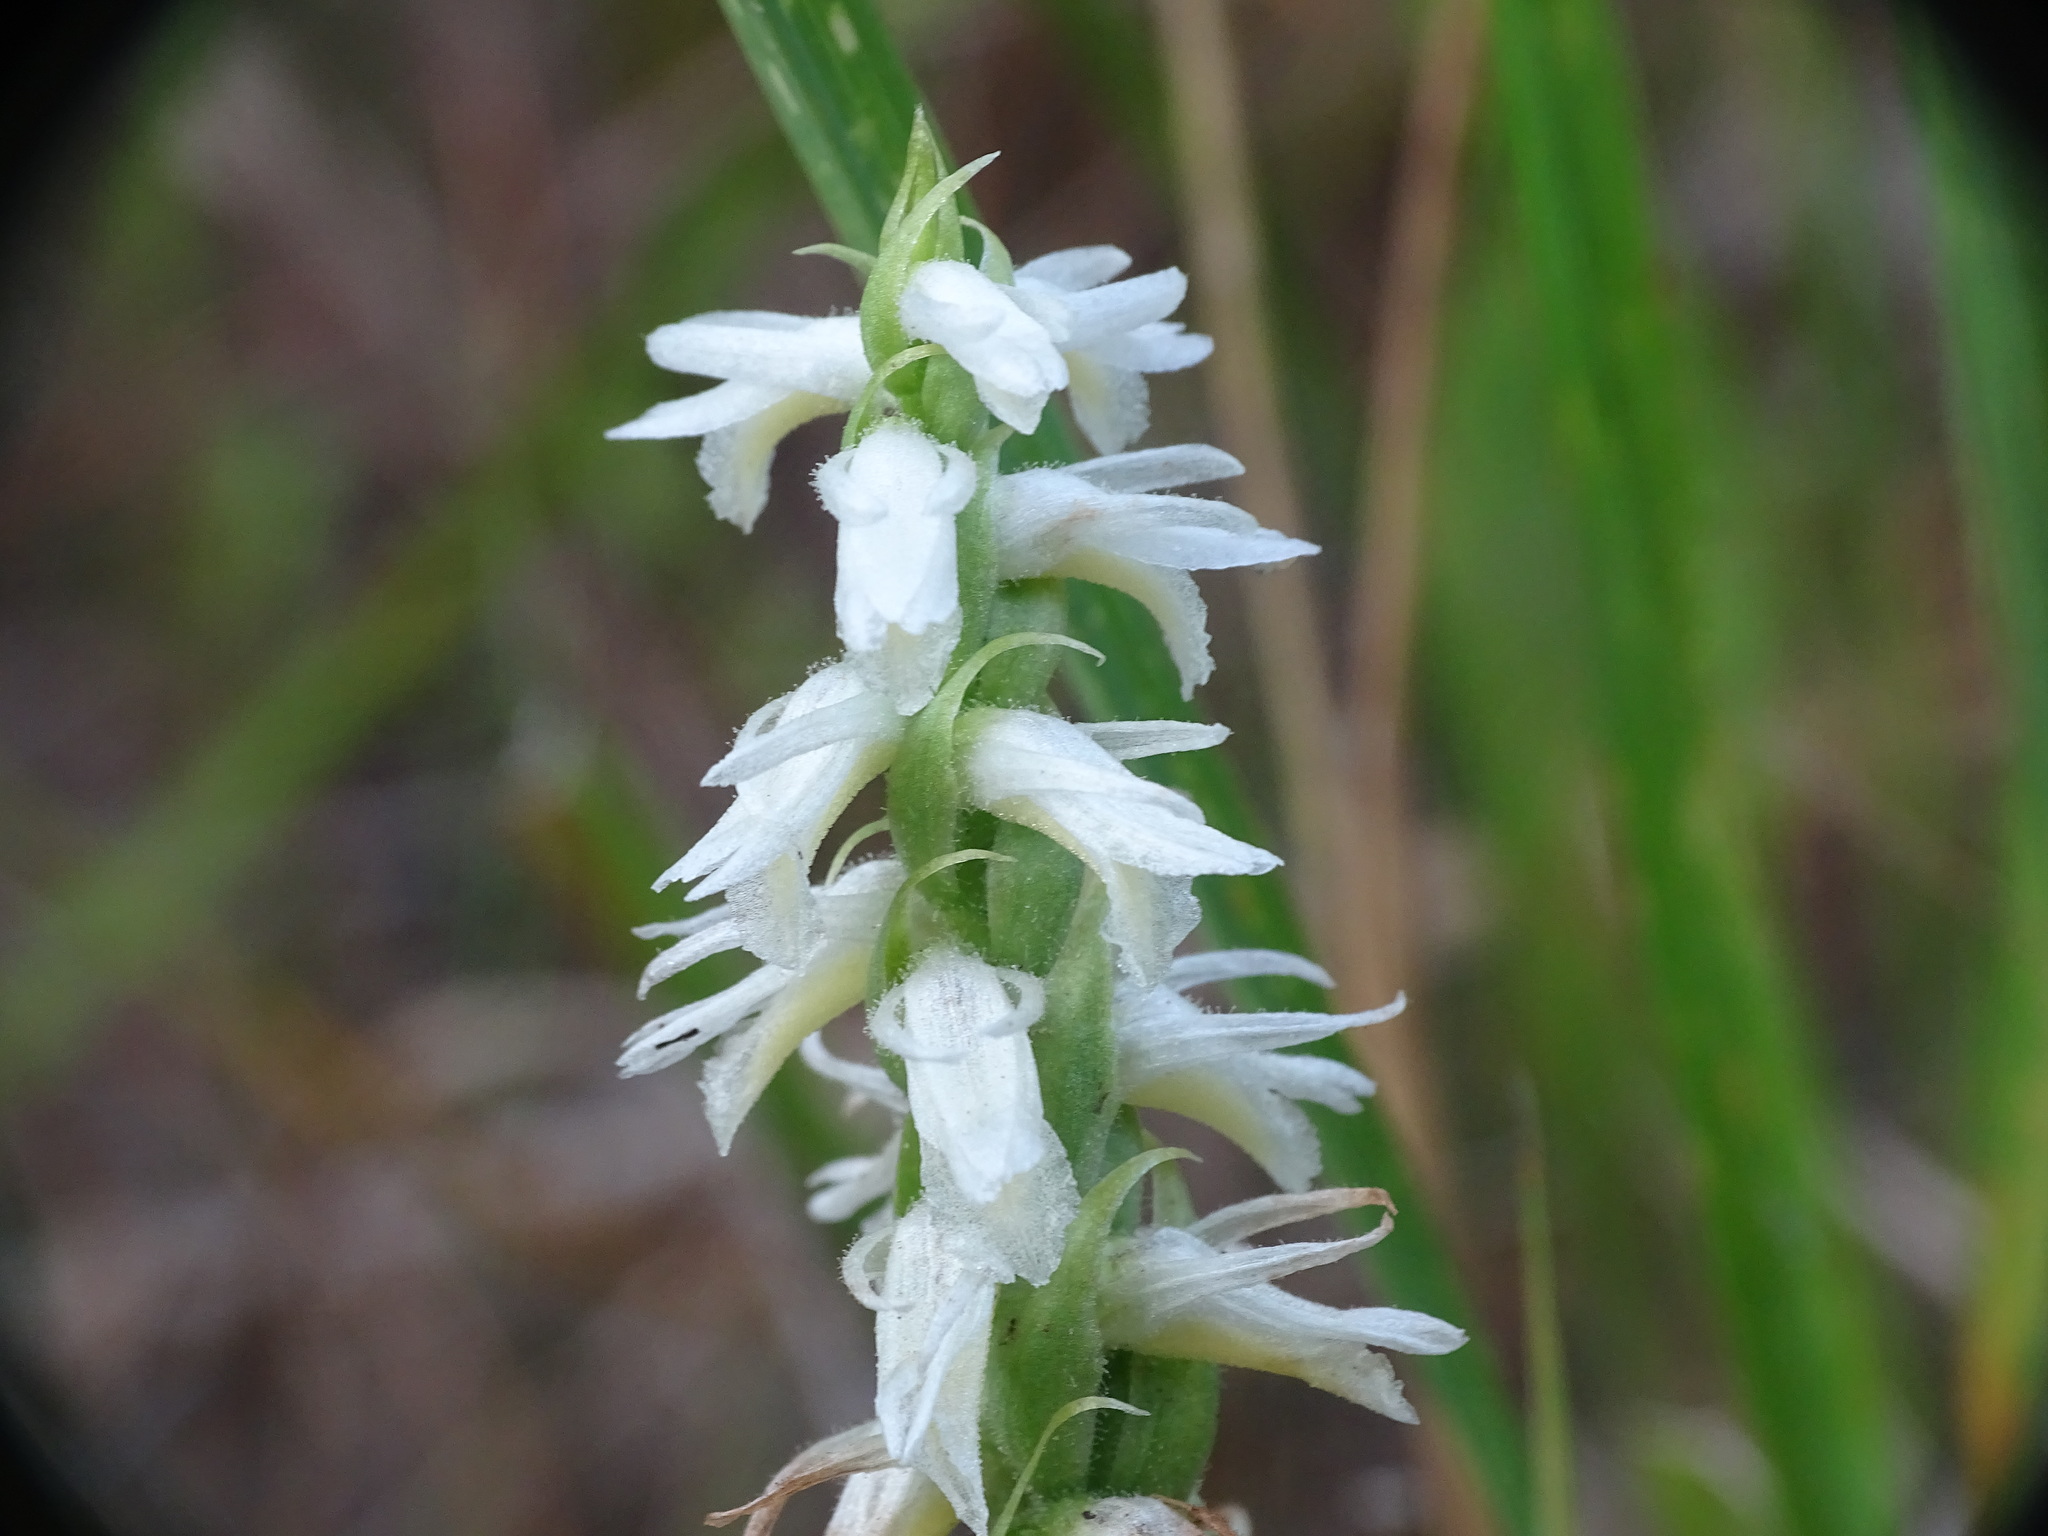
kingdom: Plantae
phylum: Tracheophyta
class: Liliopsida
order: Asparagales
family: Orchidaceae
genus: Spiranthes
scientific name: Spiranthes magnicamporum
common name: Great plains ladies'-tresses
